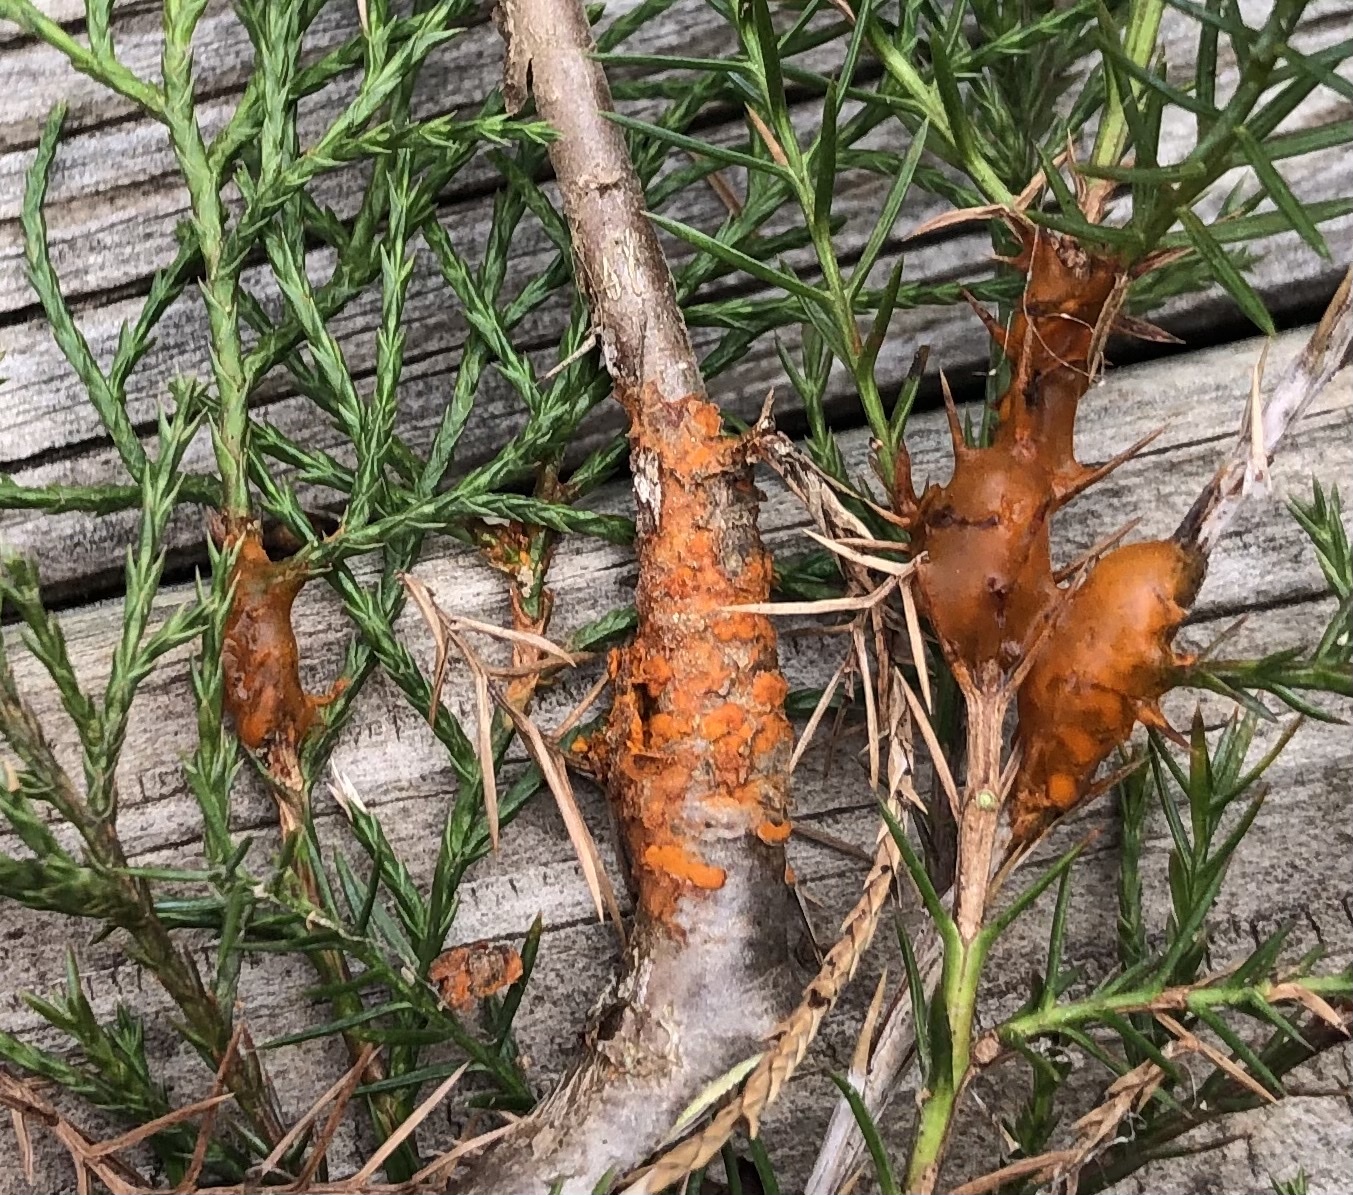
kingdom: Fungi
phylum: Basidiomycota
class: Pucciniomycetes
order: Pucciniales
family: Gymnosporangiaceae
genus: Gymnosporangium
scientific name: Gymnosporangium clavipes
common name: Quince rust
